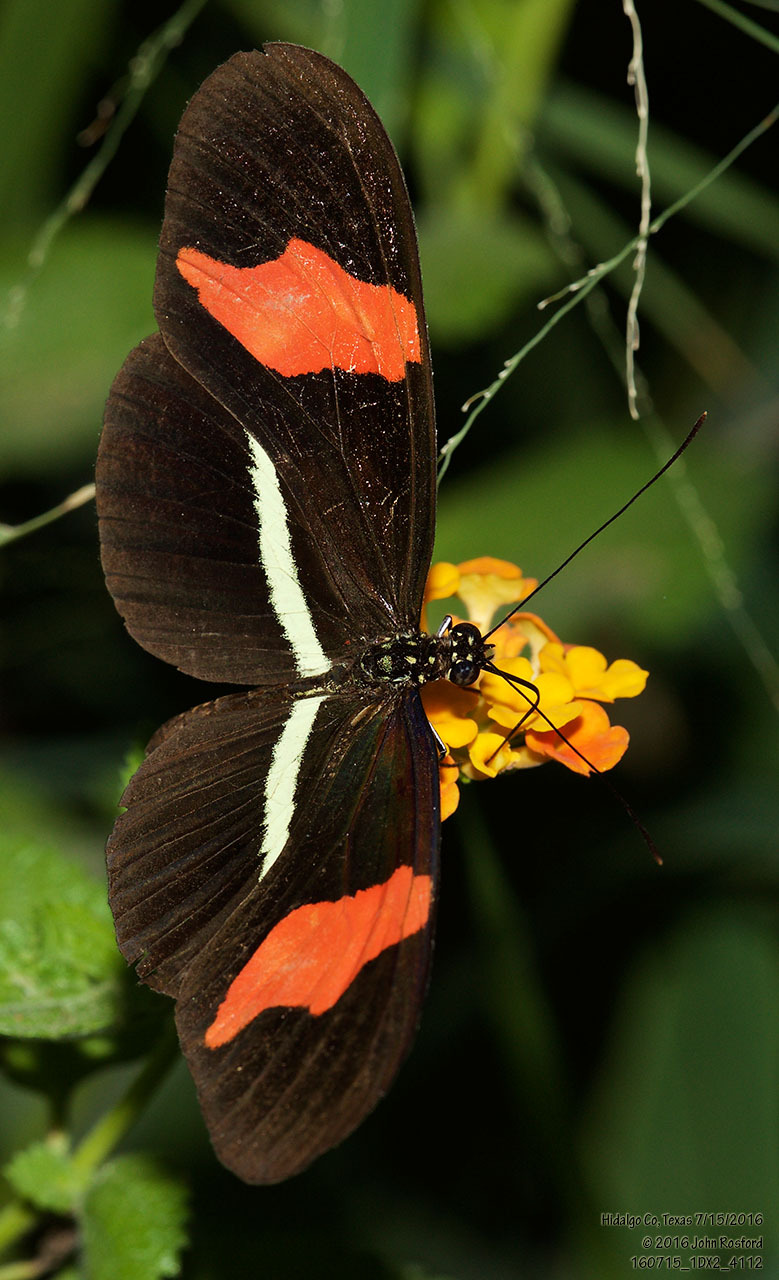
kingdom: Animalia
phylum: Arthropoda
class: Insecta
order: Lepidoptera
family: Nymphalidae
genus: Heliconius
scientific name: Heliconius erato
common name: Common patch longwing
